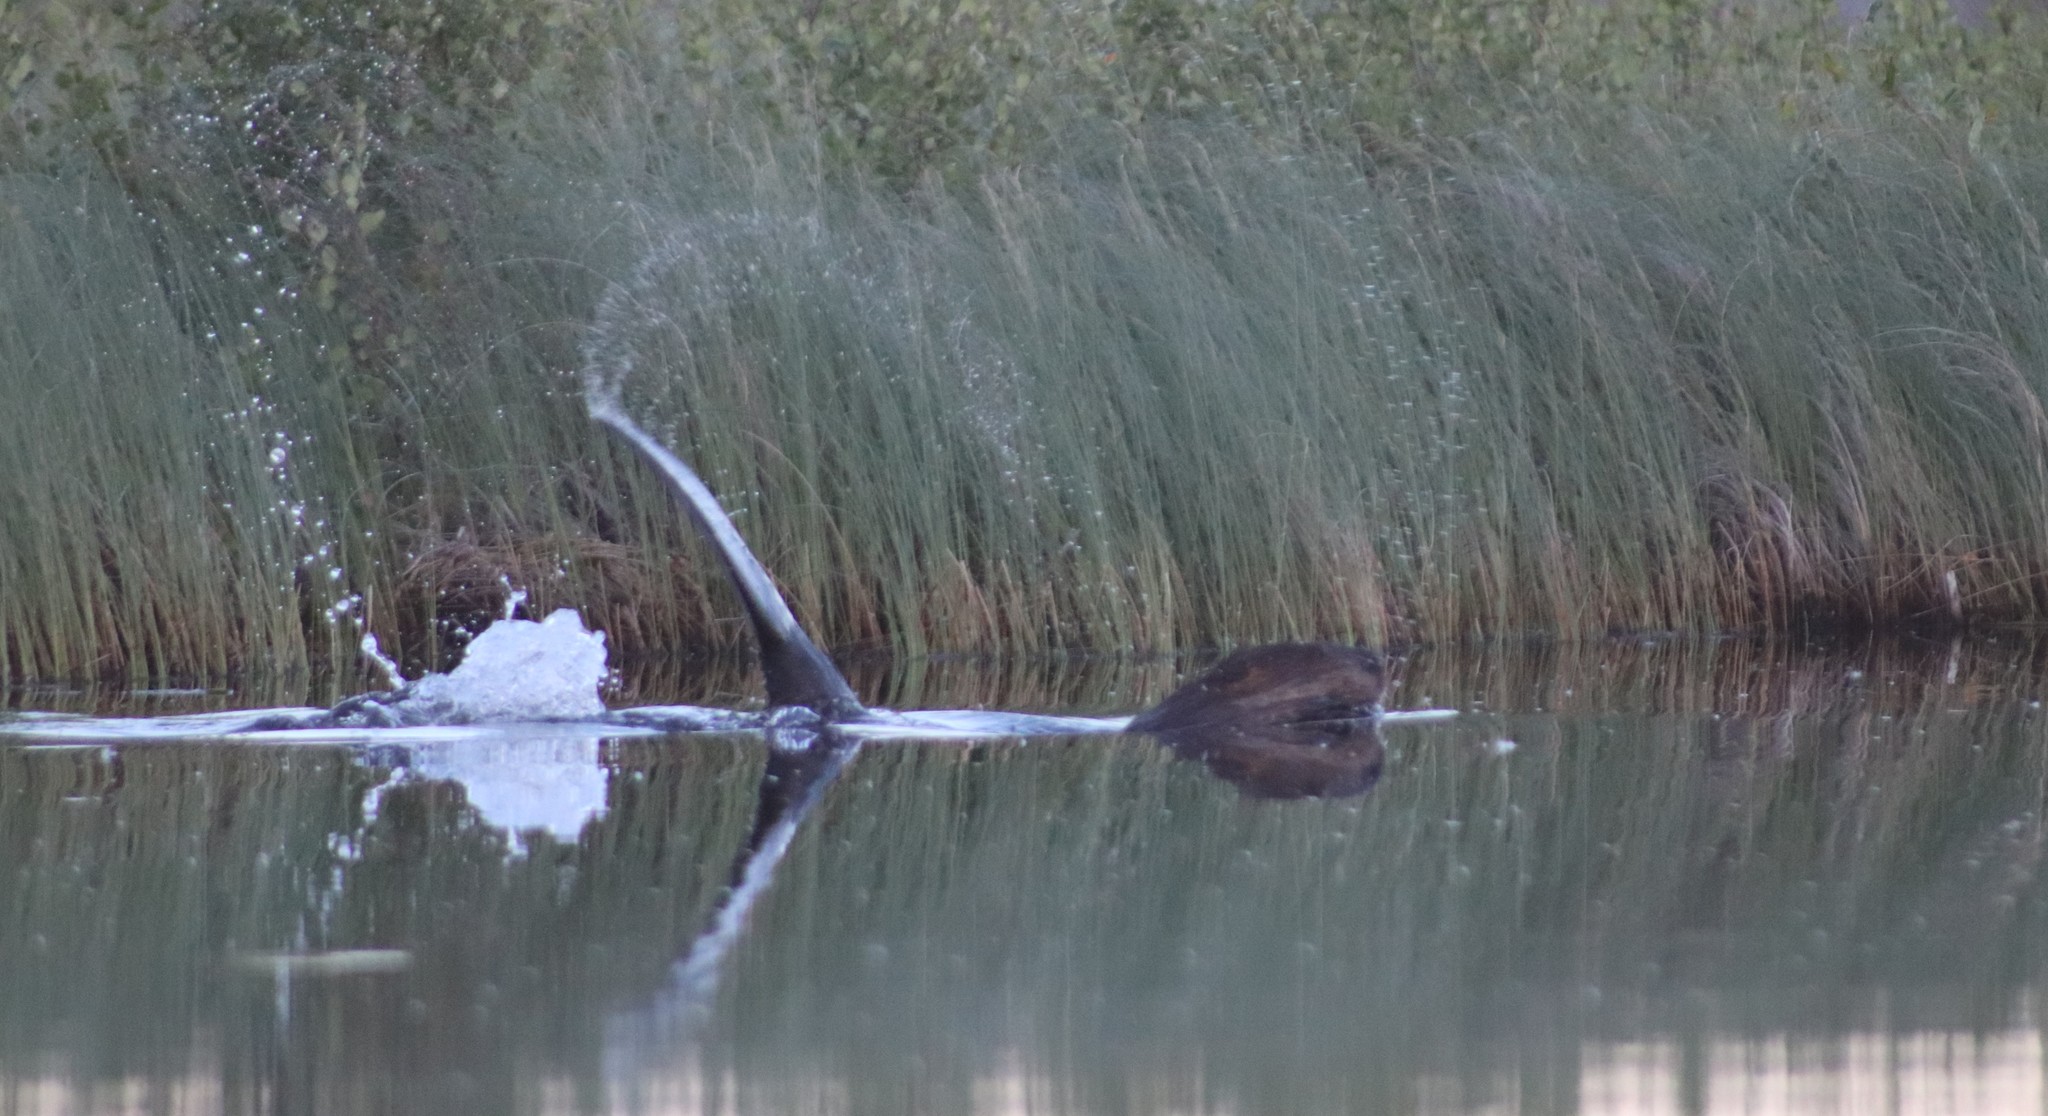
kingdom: Animalia
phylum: Chordata
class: Mammalia
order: Rodentia
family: Castoridae
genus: Castor
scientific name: Castor canadensis
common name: American beaver
